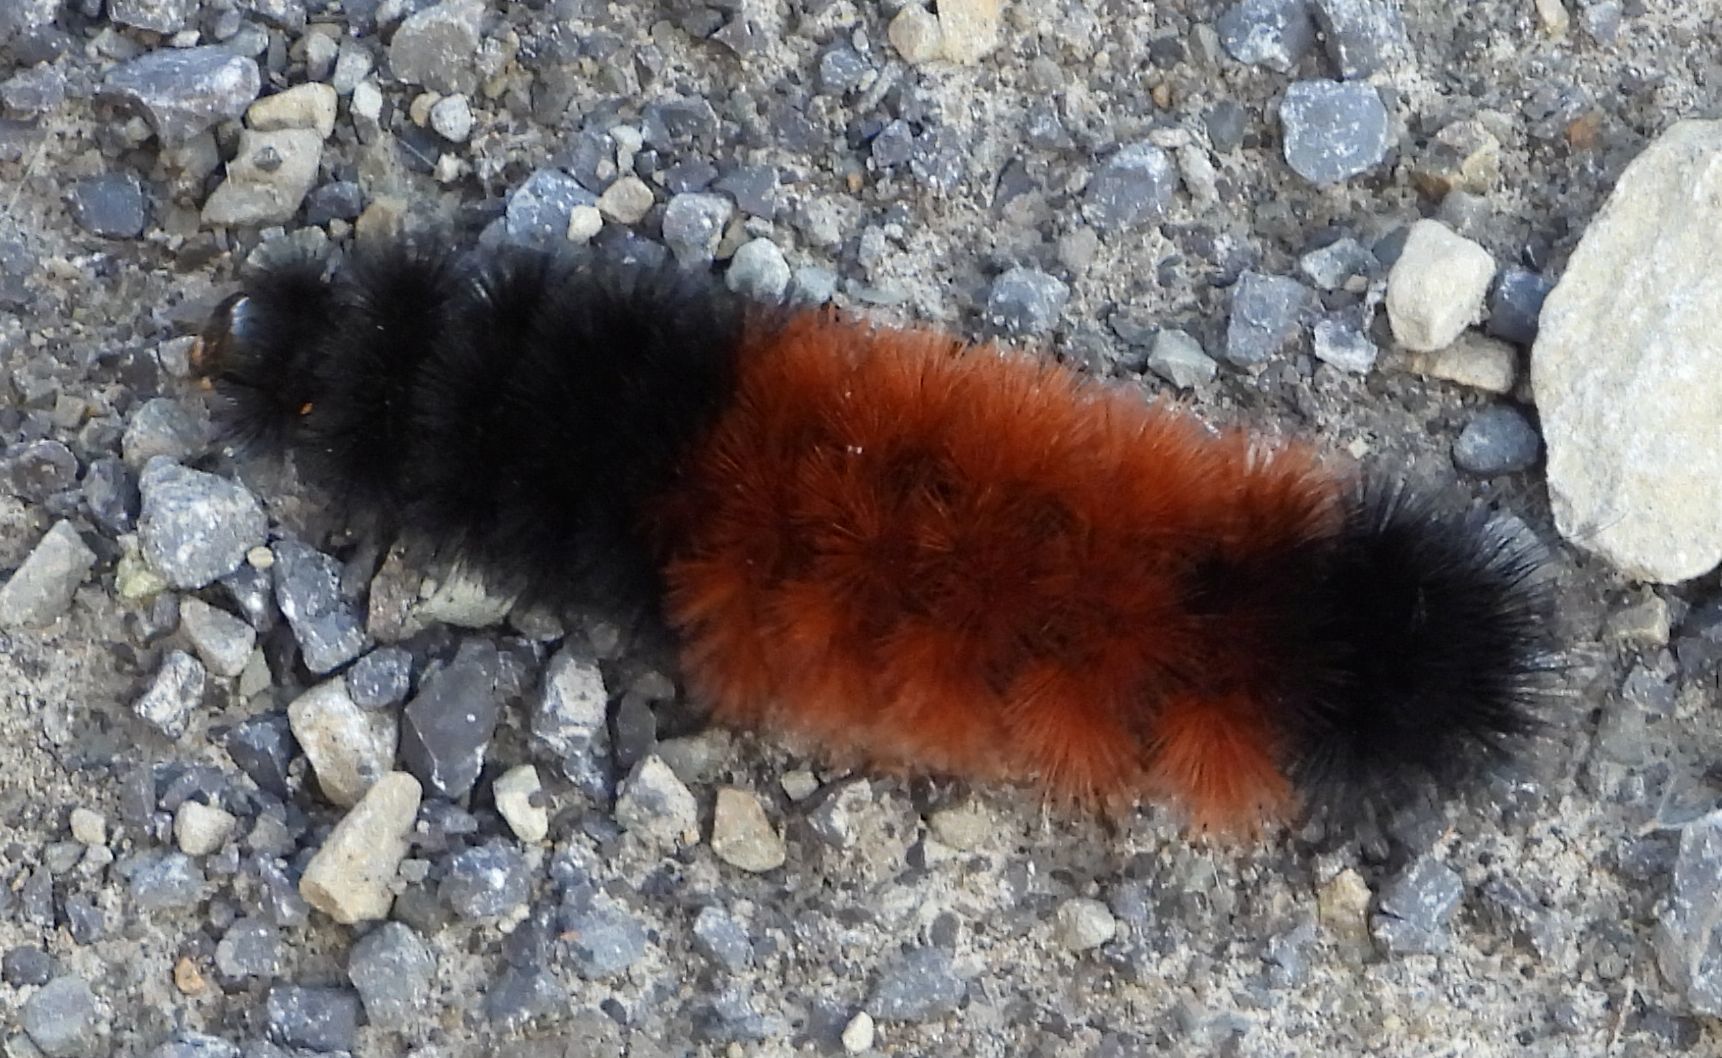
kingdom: Animalia
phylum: Arthropoda
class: Insecta
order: Lepidoptera
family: Erebidae
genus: Pyrrharctia
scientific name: Pyrrharctia isabella
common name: Isabella tiger moth
